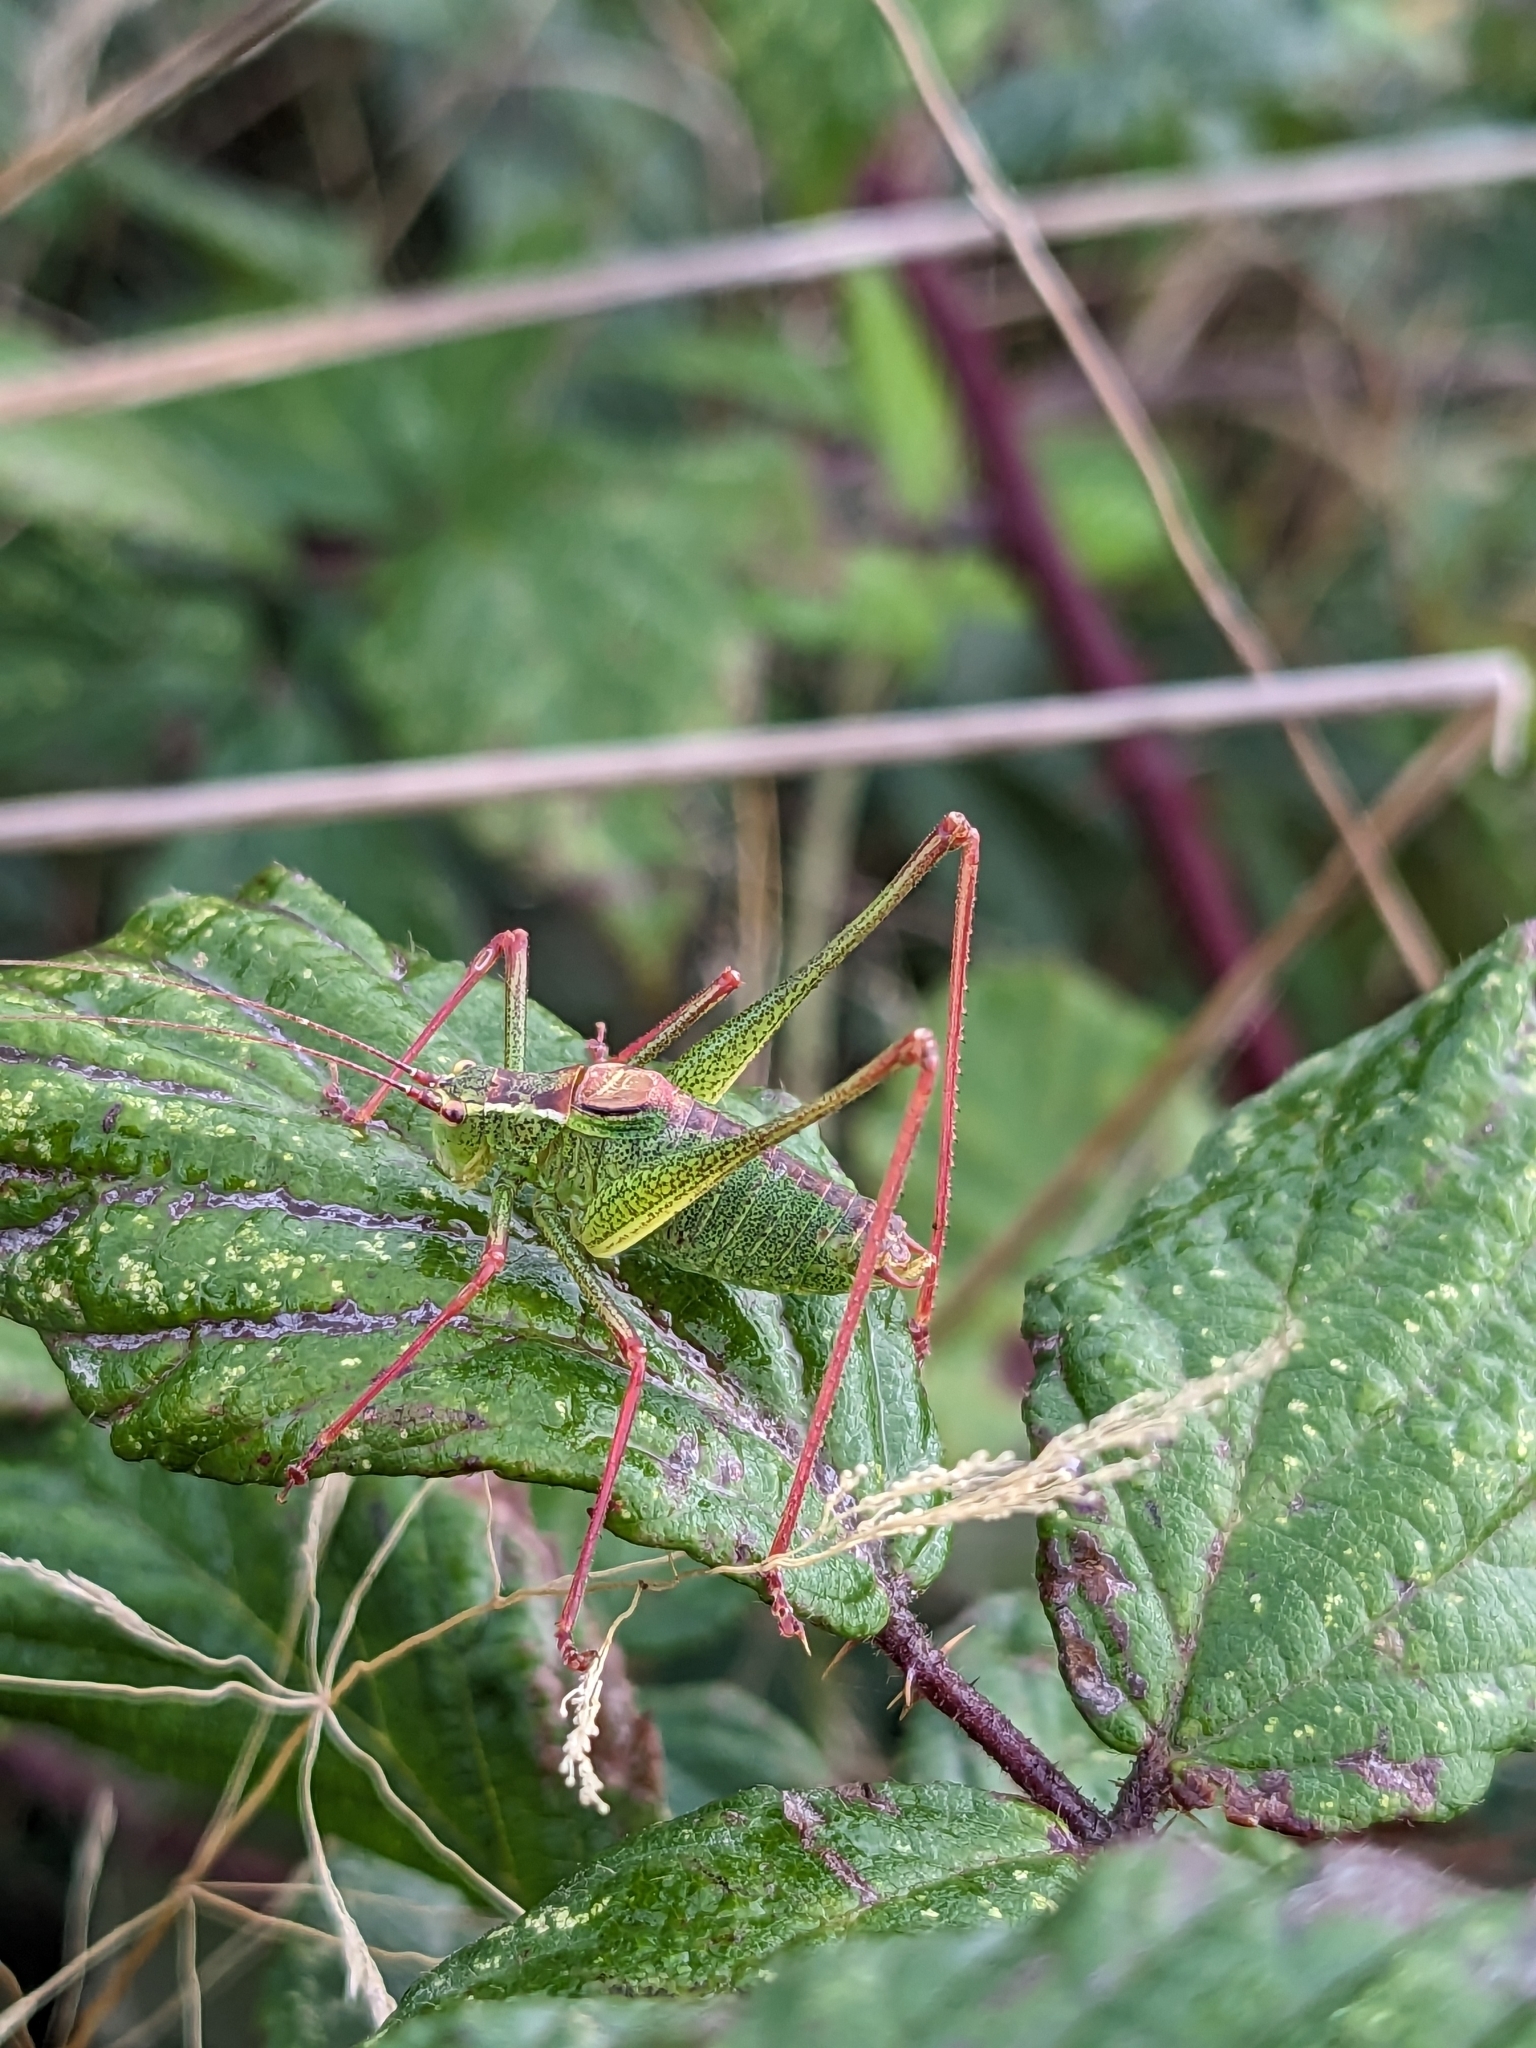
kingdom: Animalia
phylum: Arthropoda
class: Insecta
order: Orthoptera
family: Tettigoniidae
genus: Leptophyes
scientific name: Leptophyes punctatissima
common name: Speckled bush-cricket
